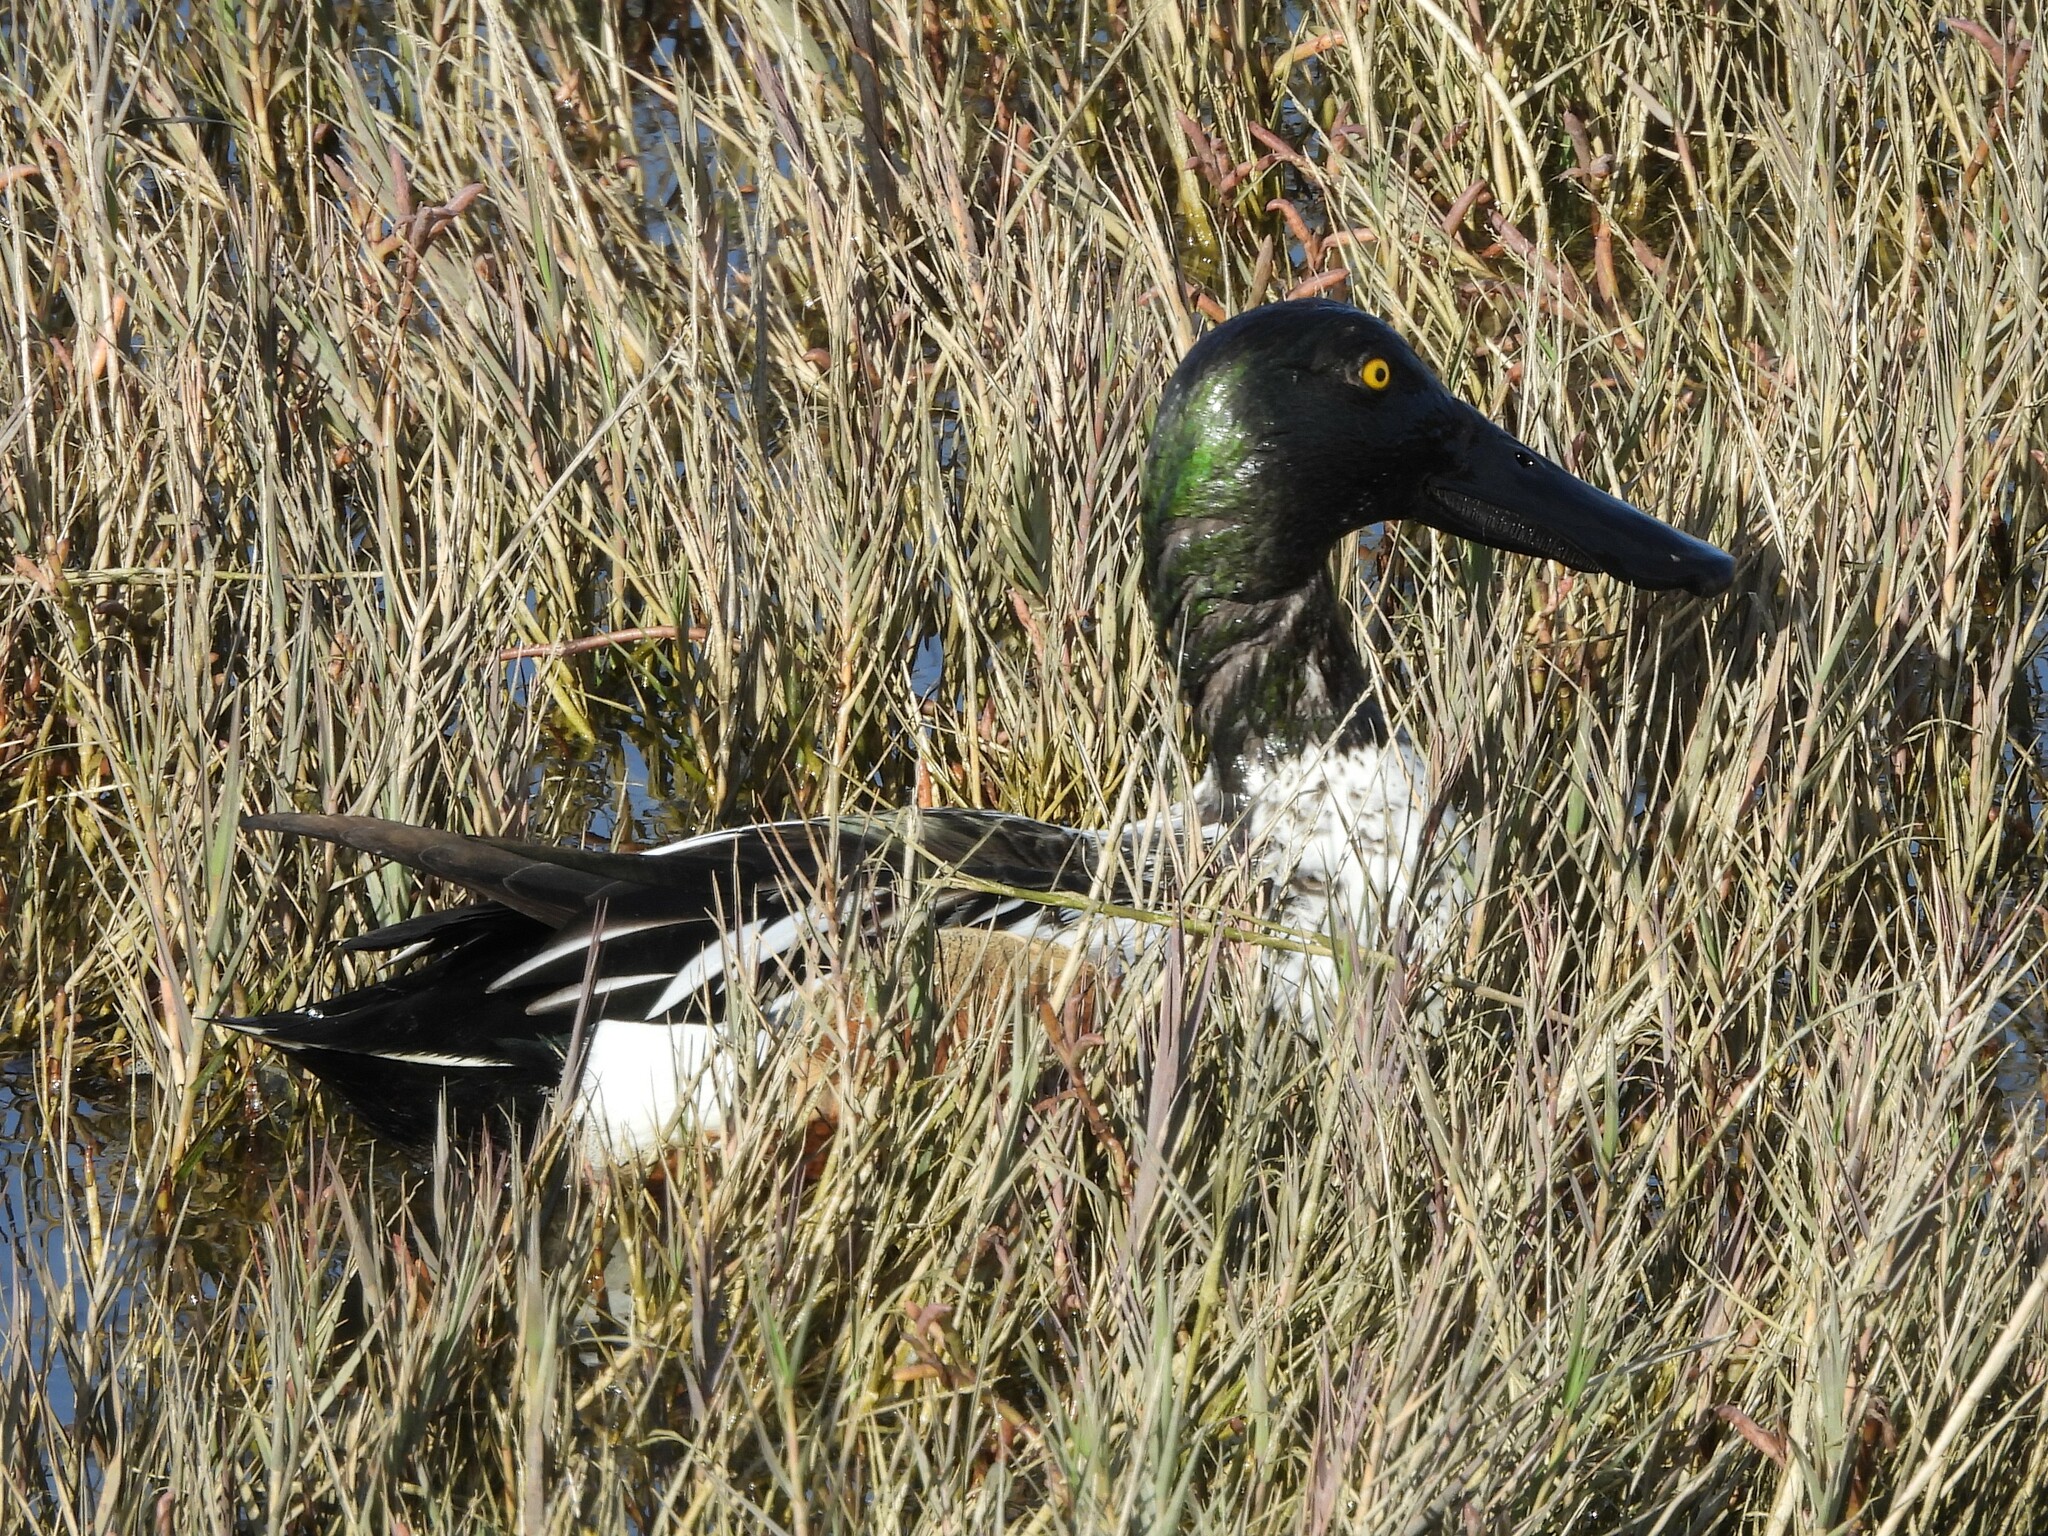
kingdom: Animalia
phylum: Chordata
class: Aves
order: Anseriformes
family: Anatidae
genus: Spatula
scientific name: Spatula clypeata
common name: Northern shoveler
